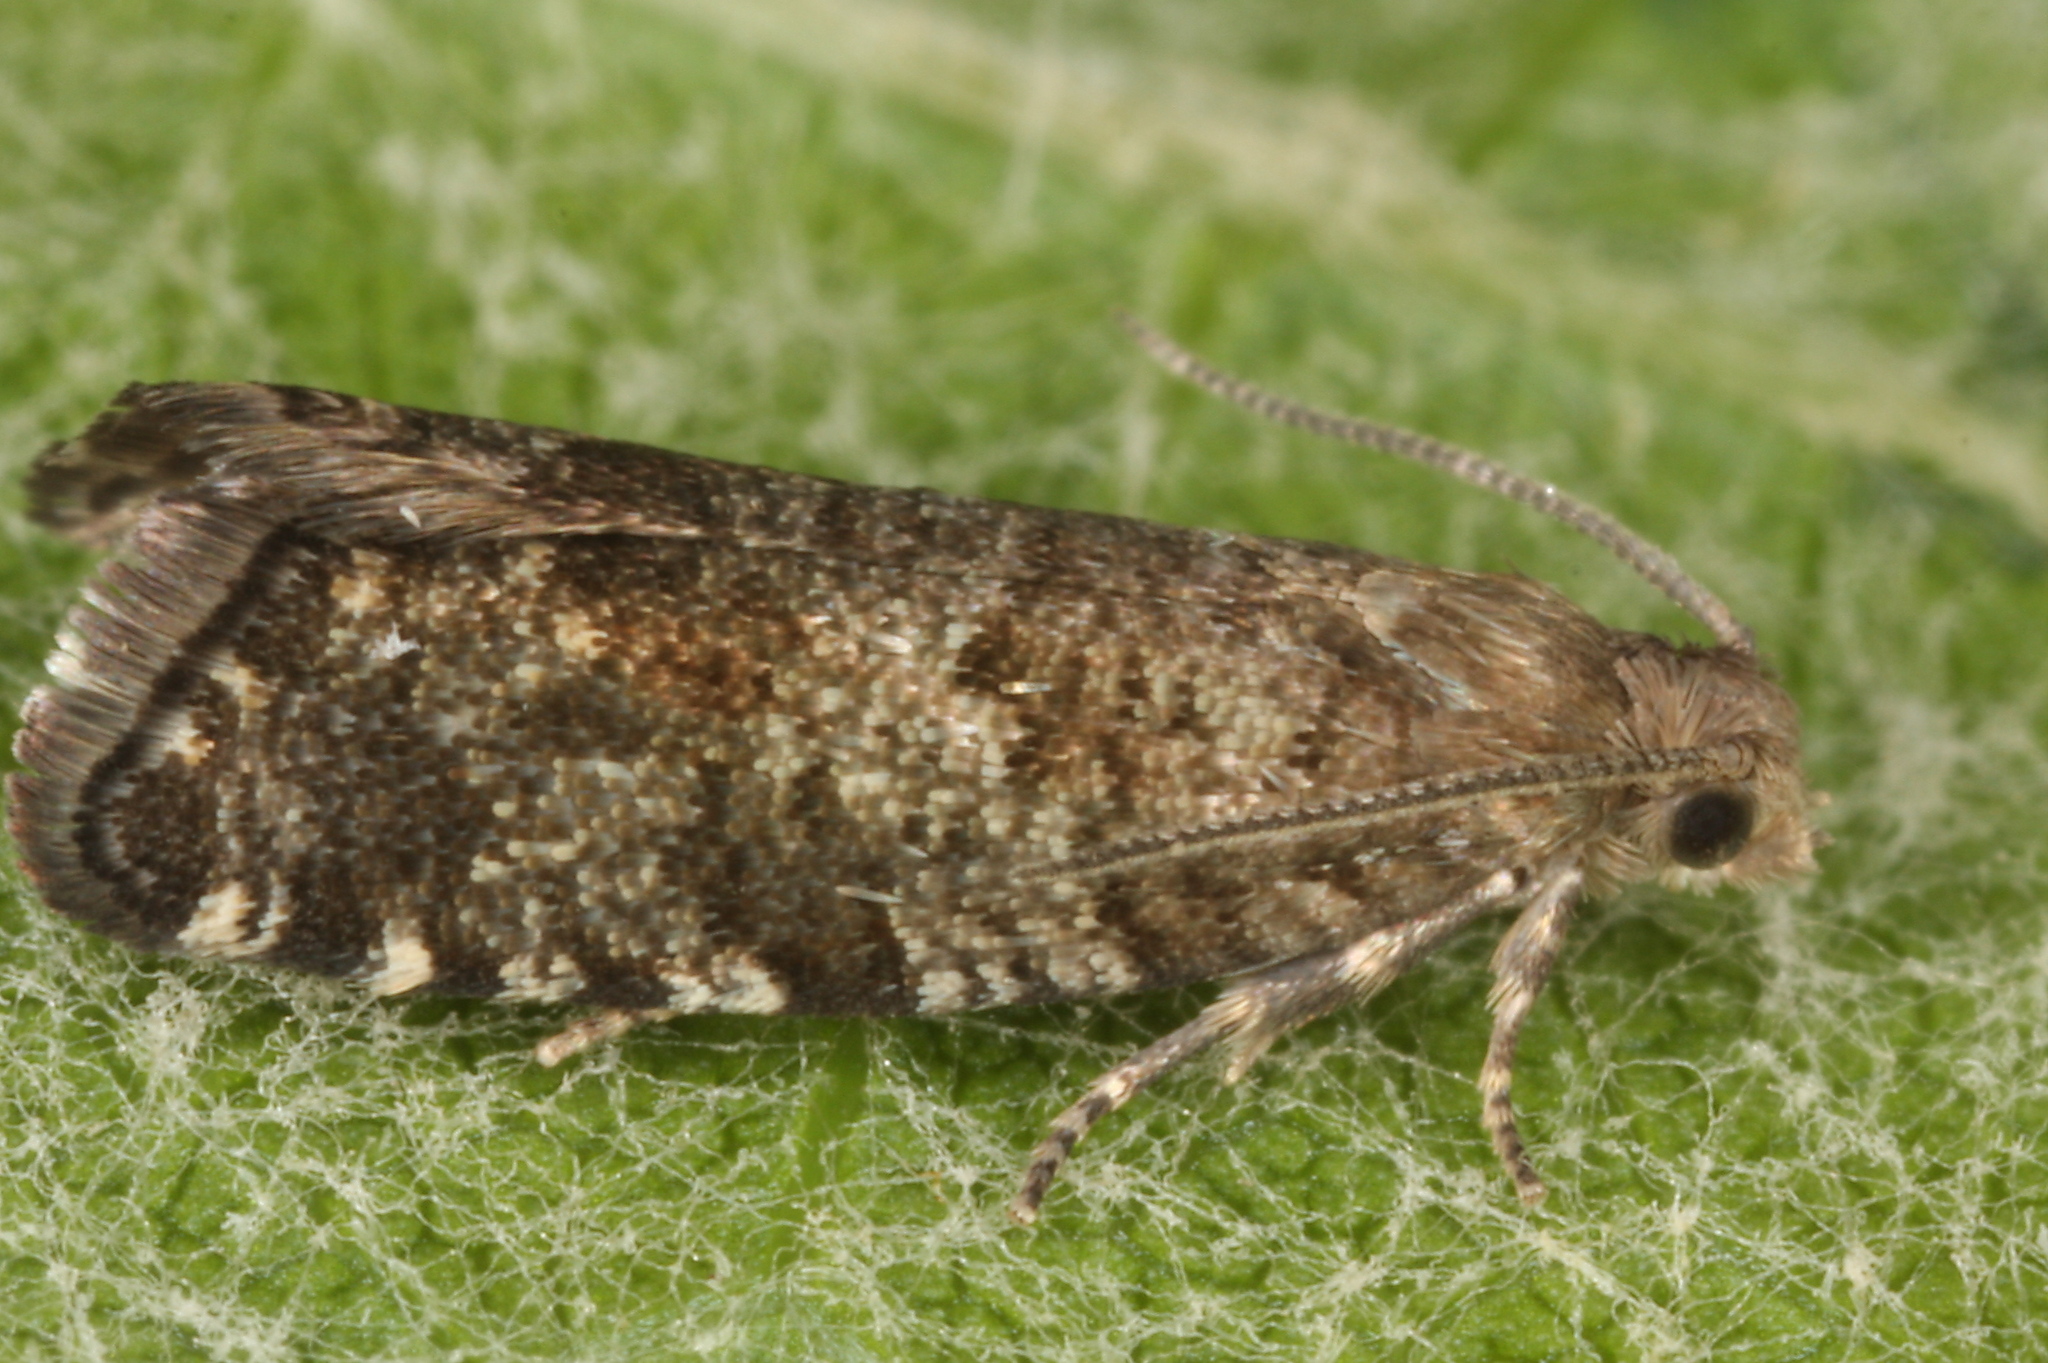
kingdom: Animalia
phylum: Arthropoda
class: Insecta
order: Lepidoptera
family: Tortricidae
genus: Epinotia
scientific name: Epinotia nanana
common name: Leaf roller
